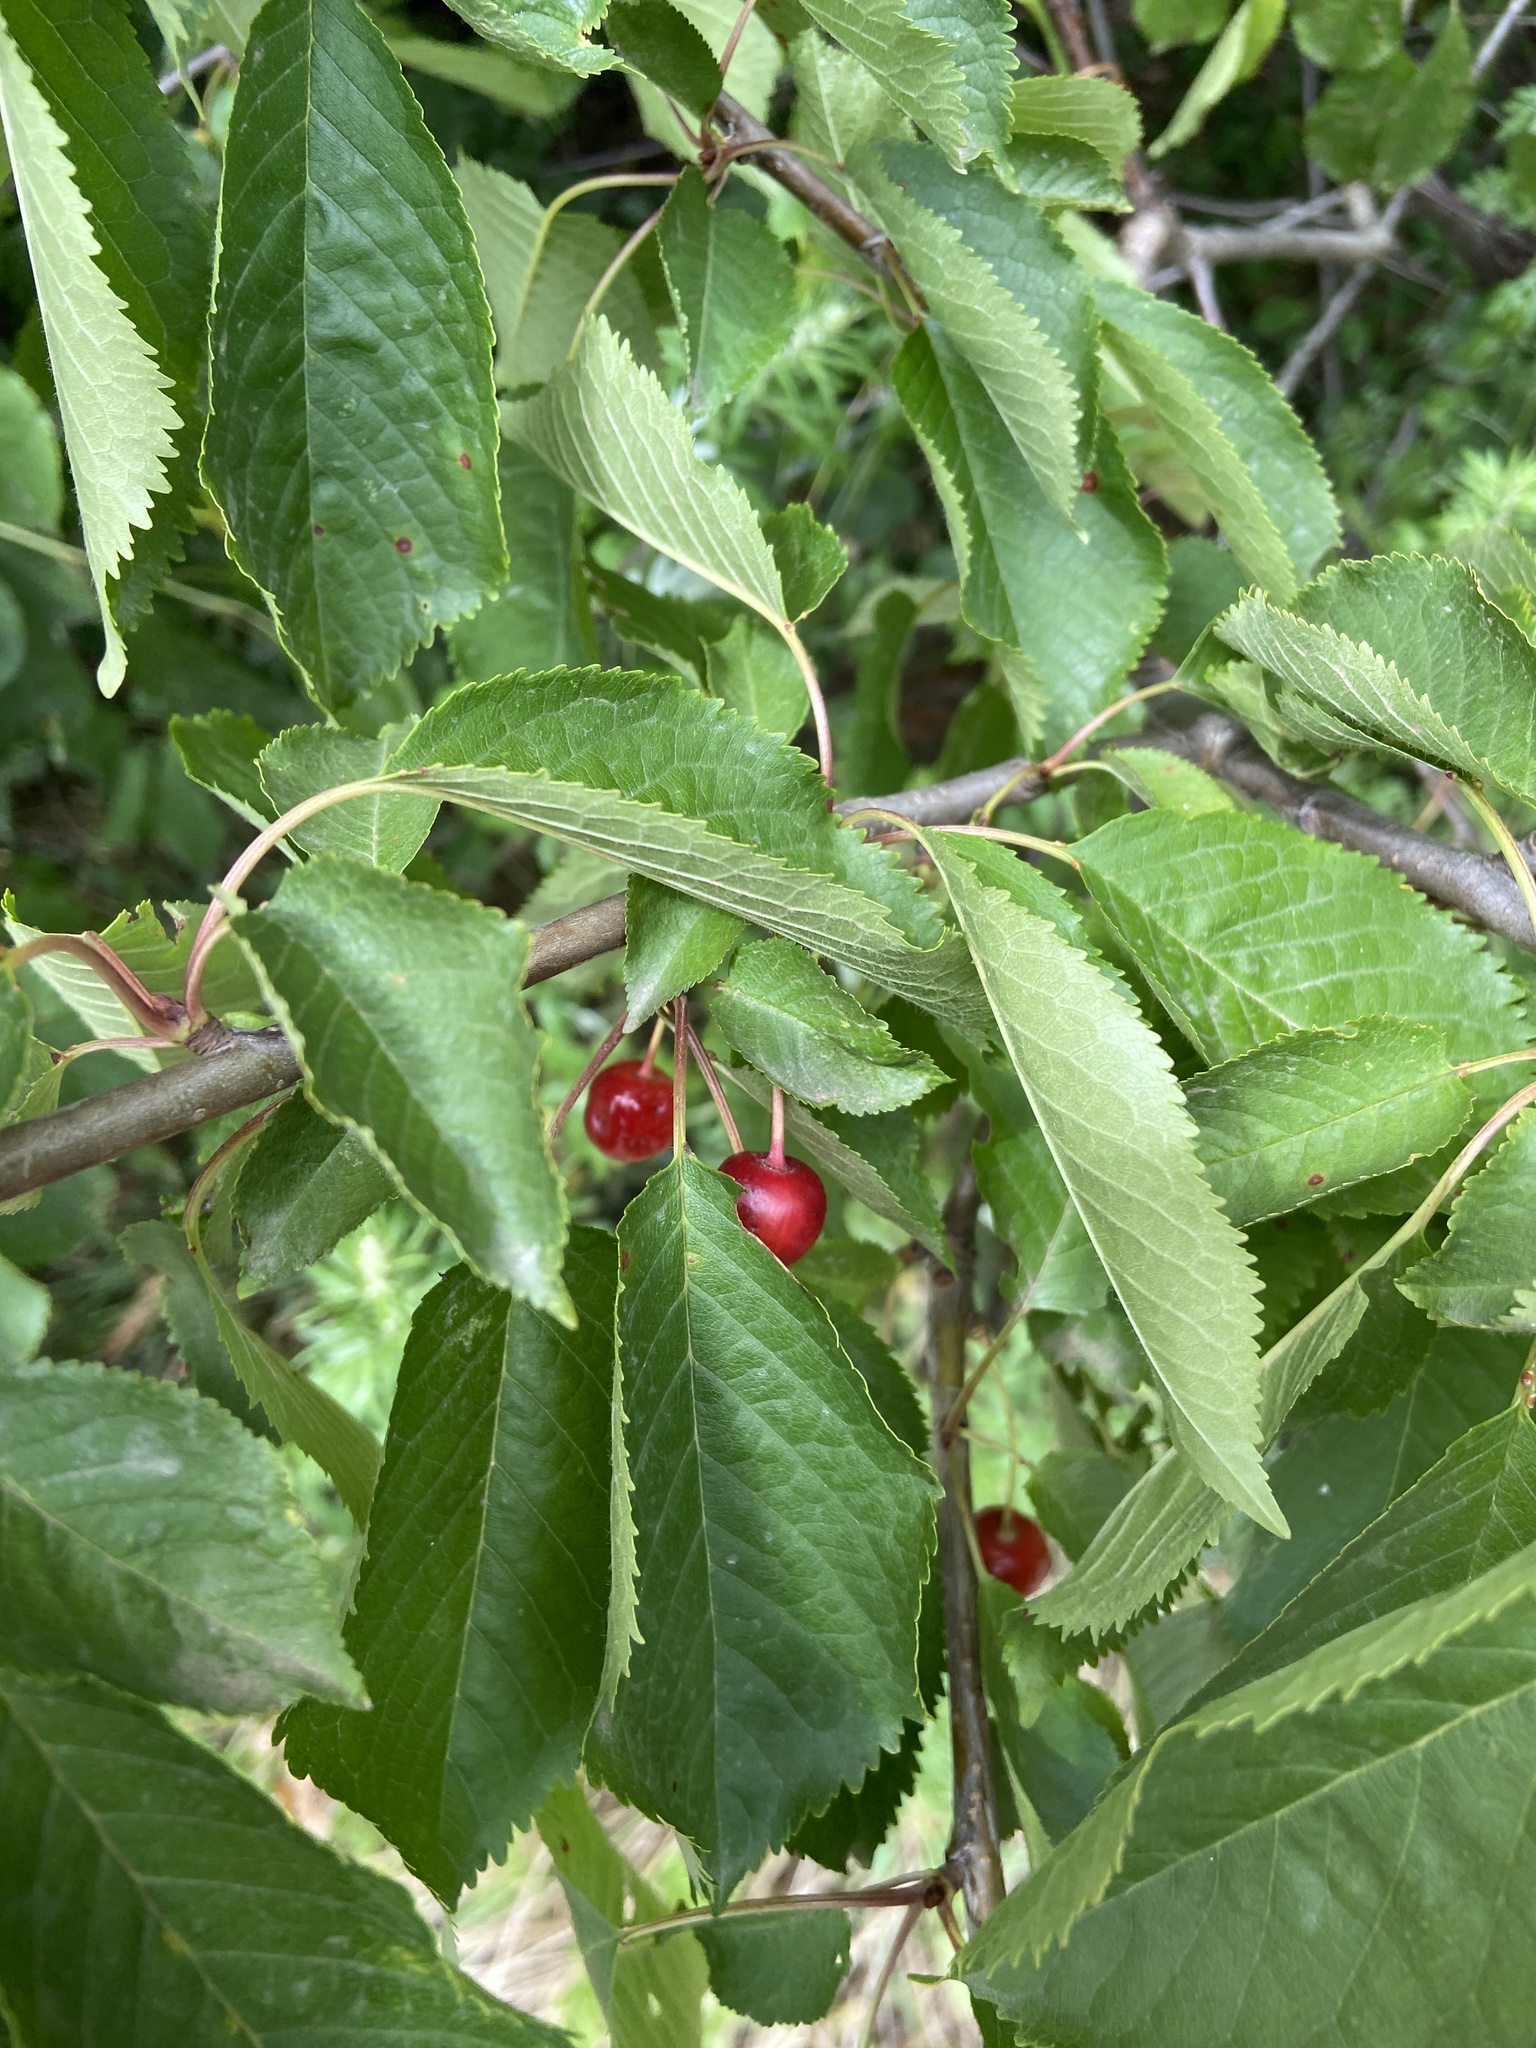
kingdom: Plantae
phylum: Tracheophyta
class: Magnoliopsida
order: Rosales
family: Rosaceae
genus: Prunus
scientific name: Prunus avium
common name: Sweet cherry
